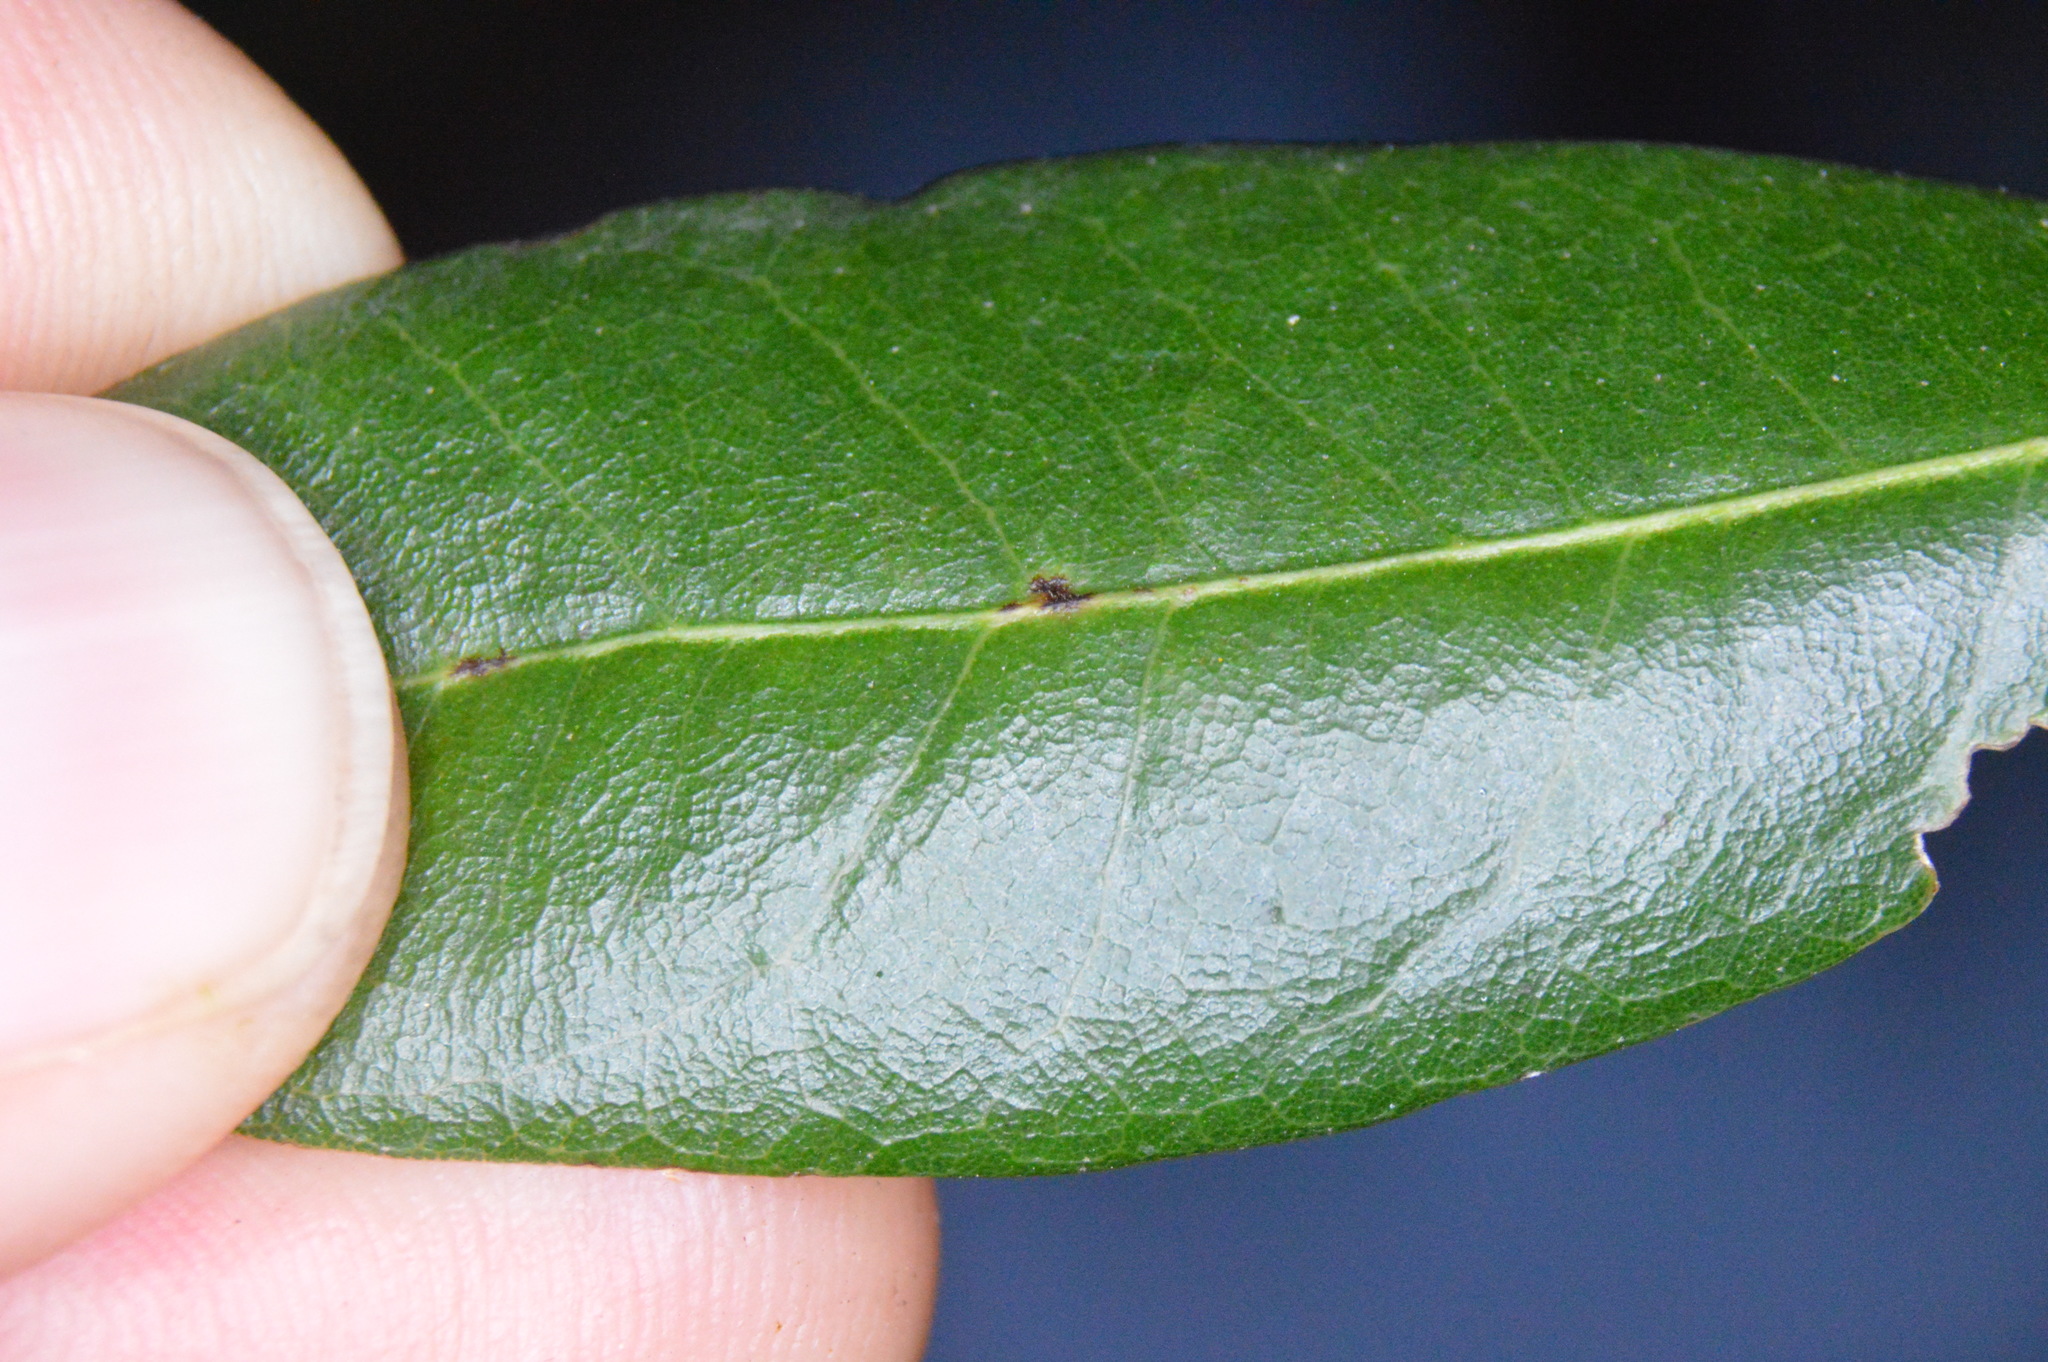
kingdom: Animalia
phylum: Arthropoda
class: Insecta
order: Hymenoptera
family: Cynipidae
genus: Andricus
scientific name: Andricus Druon quercuslanigerum
